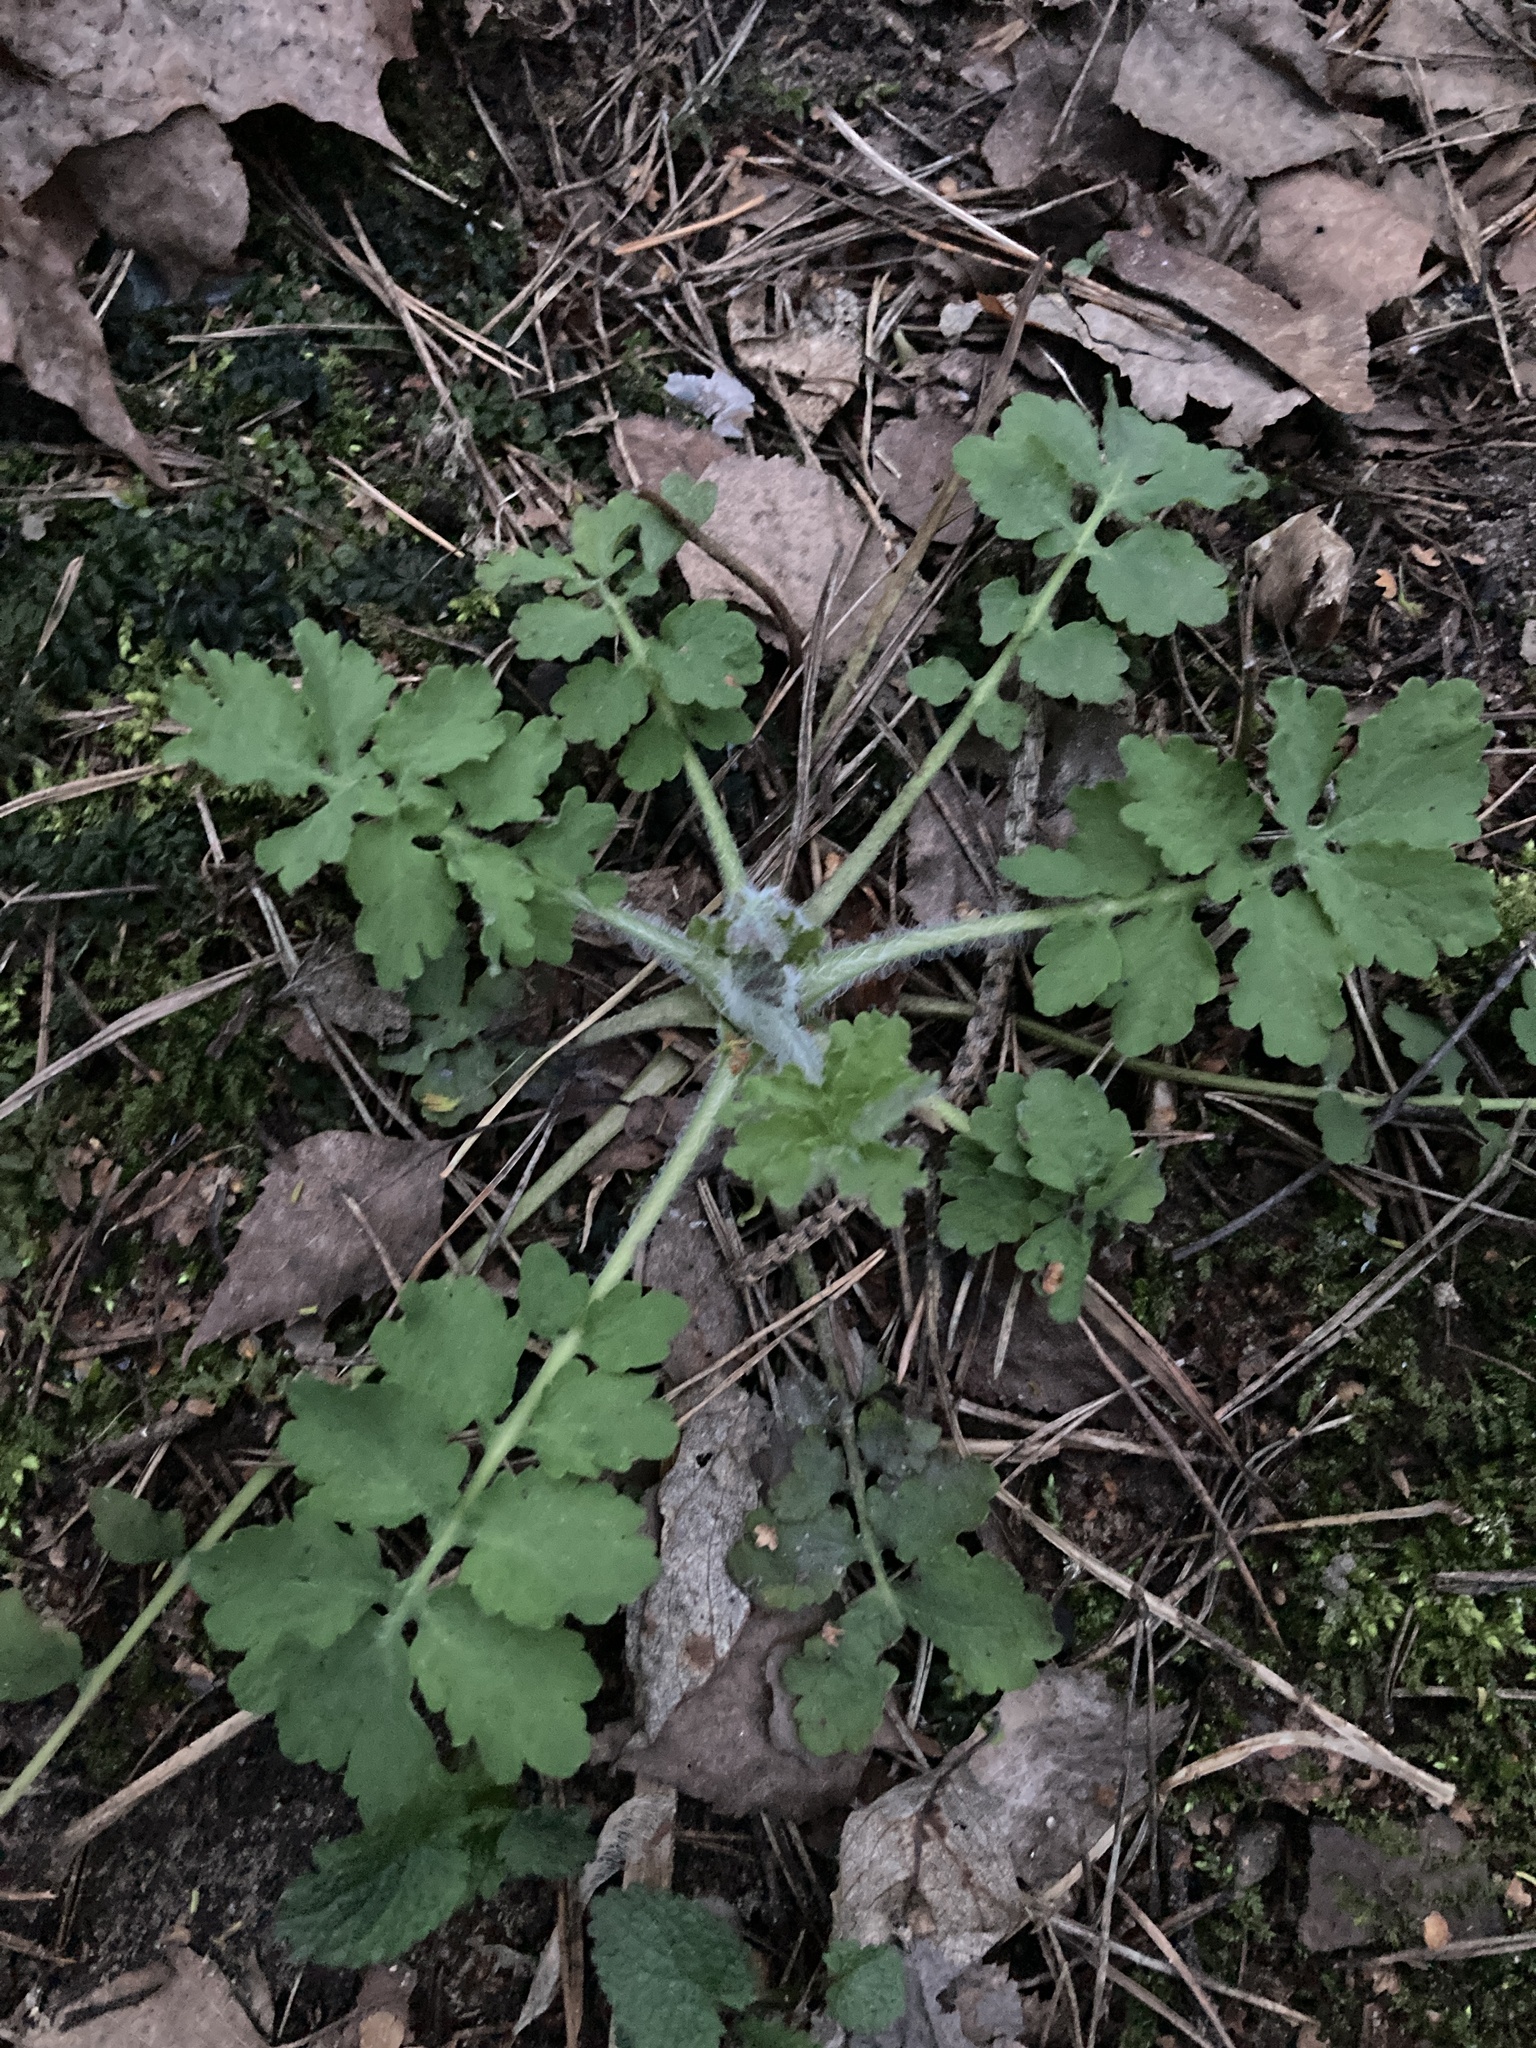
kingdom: Plantae
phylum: Tracheophyta
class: Magnoliopsida
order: Ranunculales
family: Papaveraceae
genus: Chelidonium
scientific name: Chelidonium majus
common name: Greater celandine
